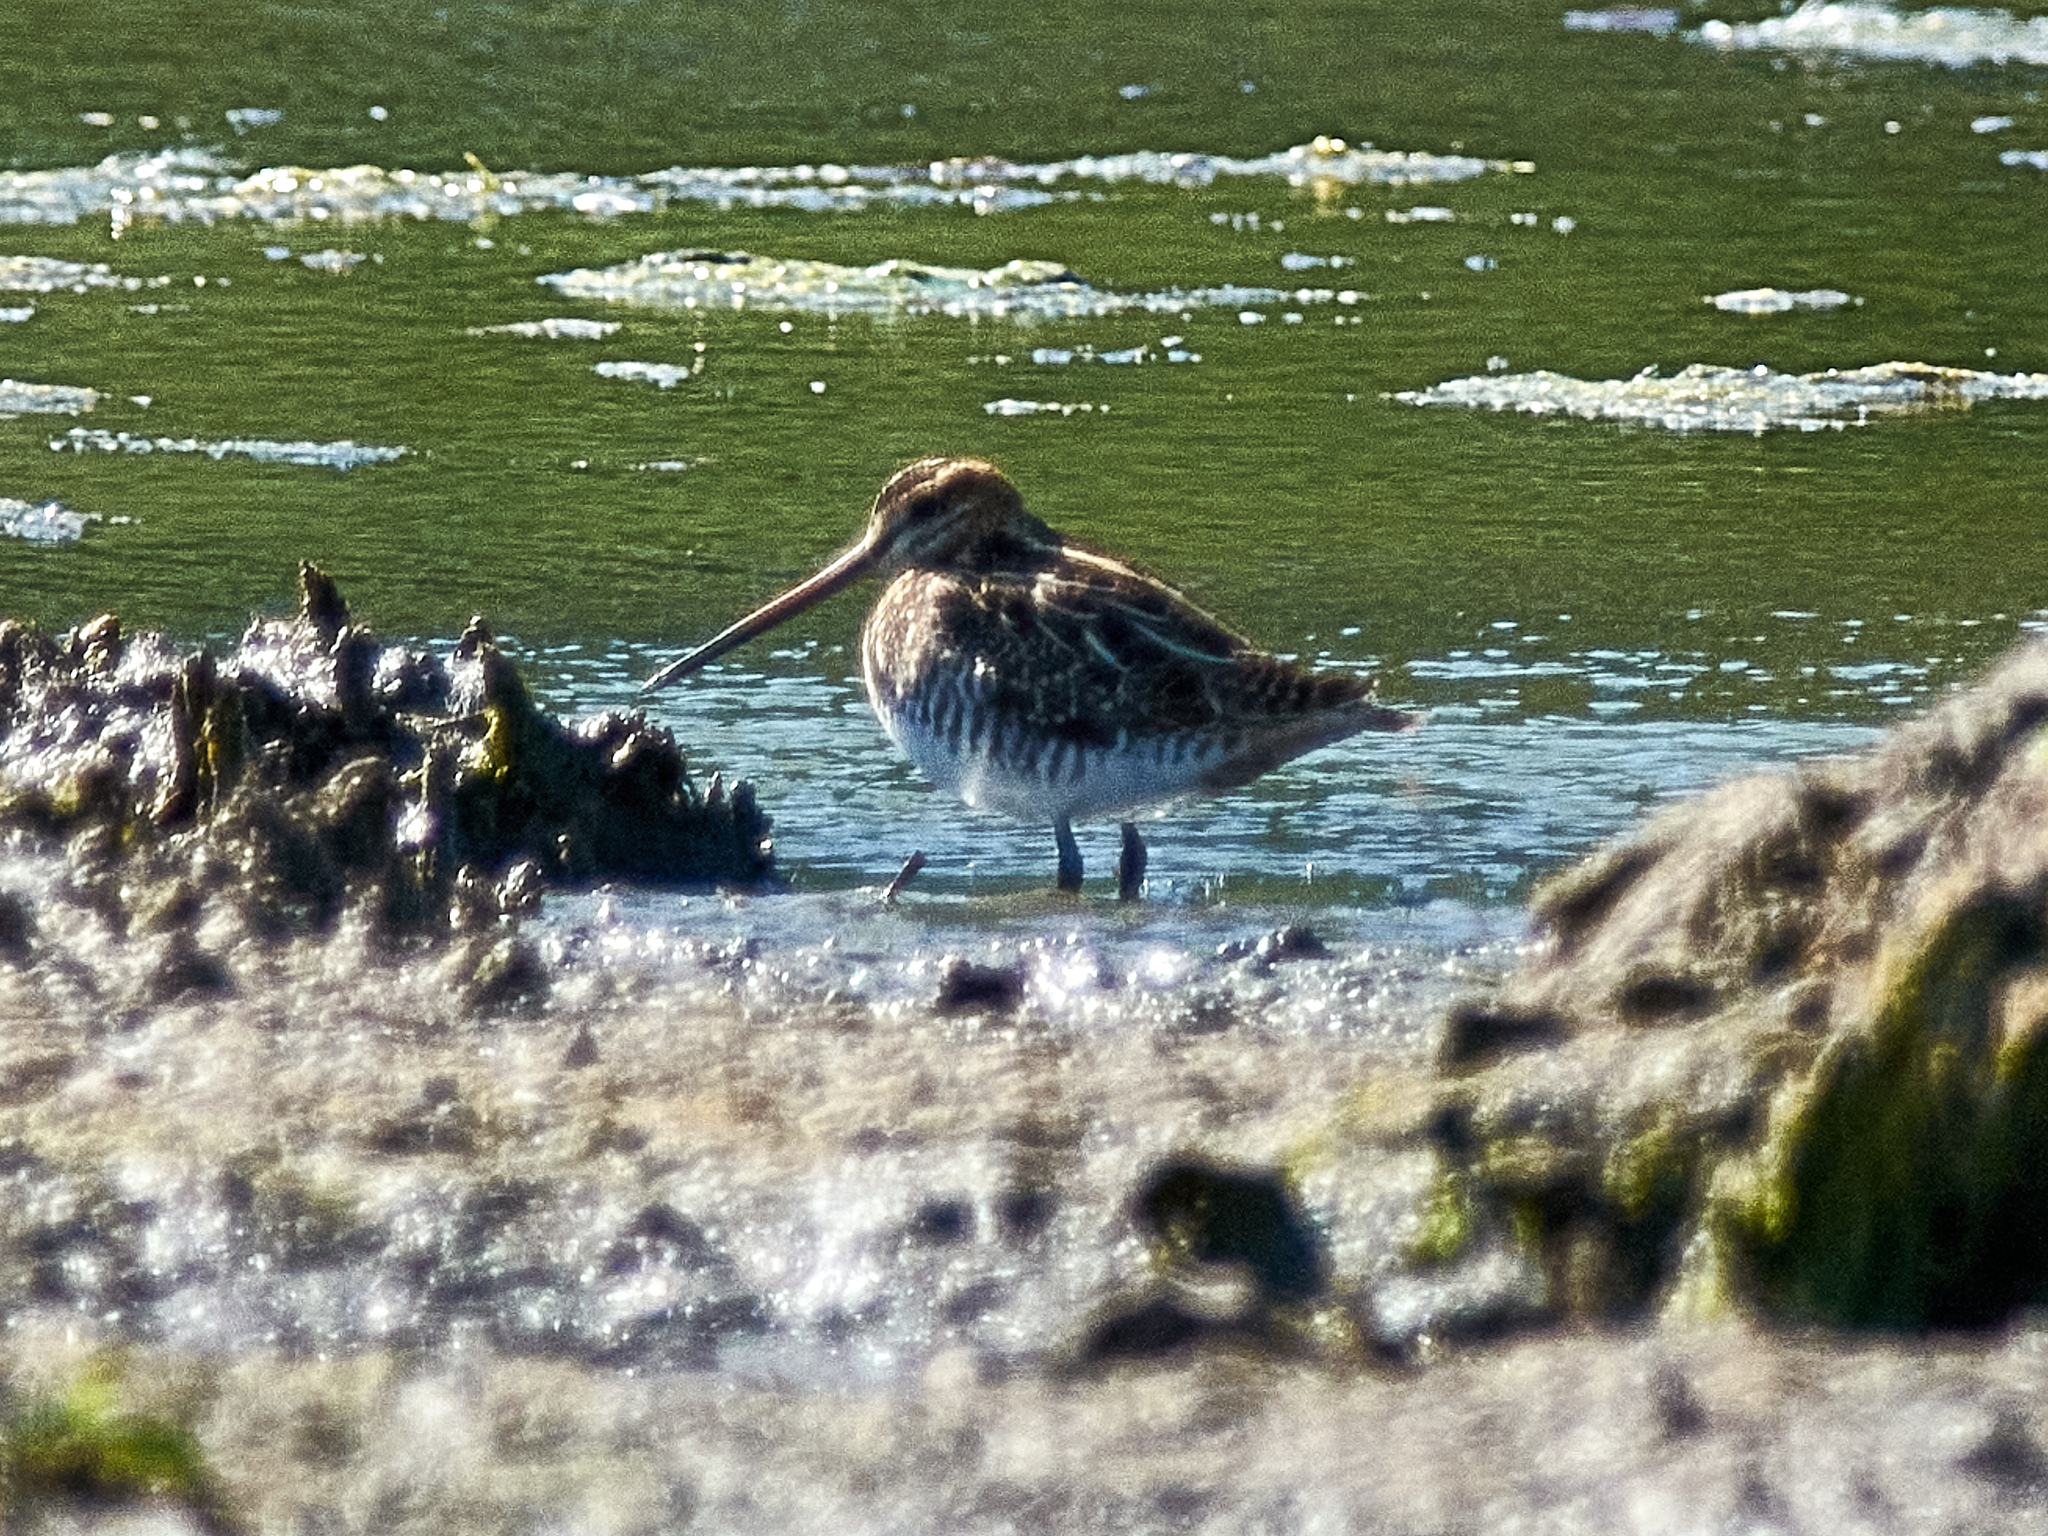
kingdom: Animalia
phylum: Chordata
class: Aves
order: Charadriiformes
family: Scolopacidae
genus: Gallinago
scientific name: Gallinago gallinago
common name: Common snipe
